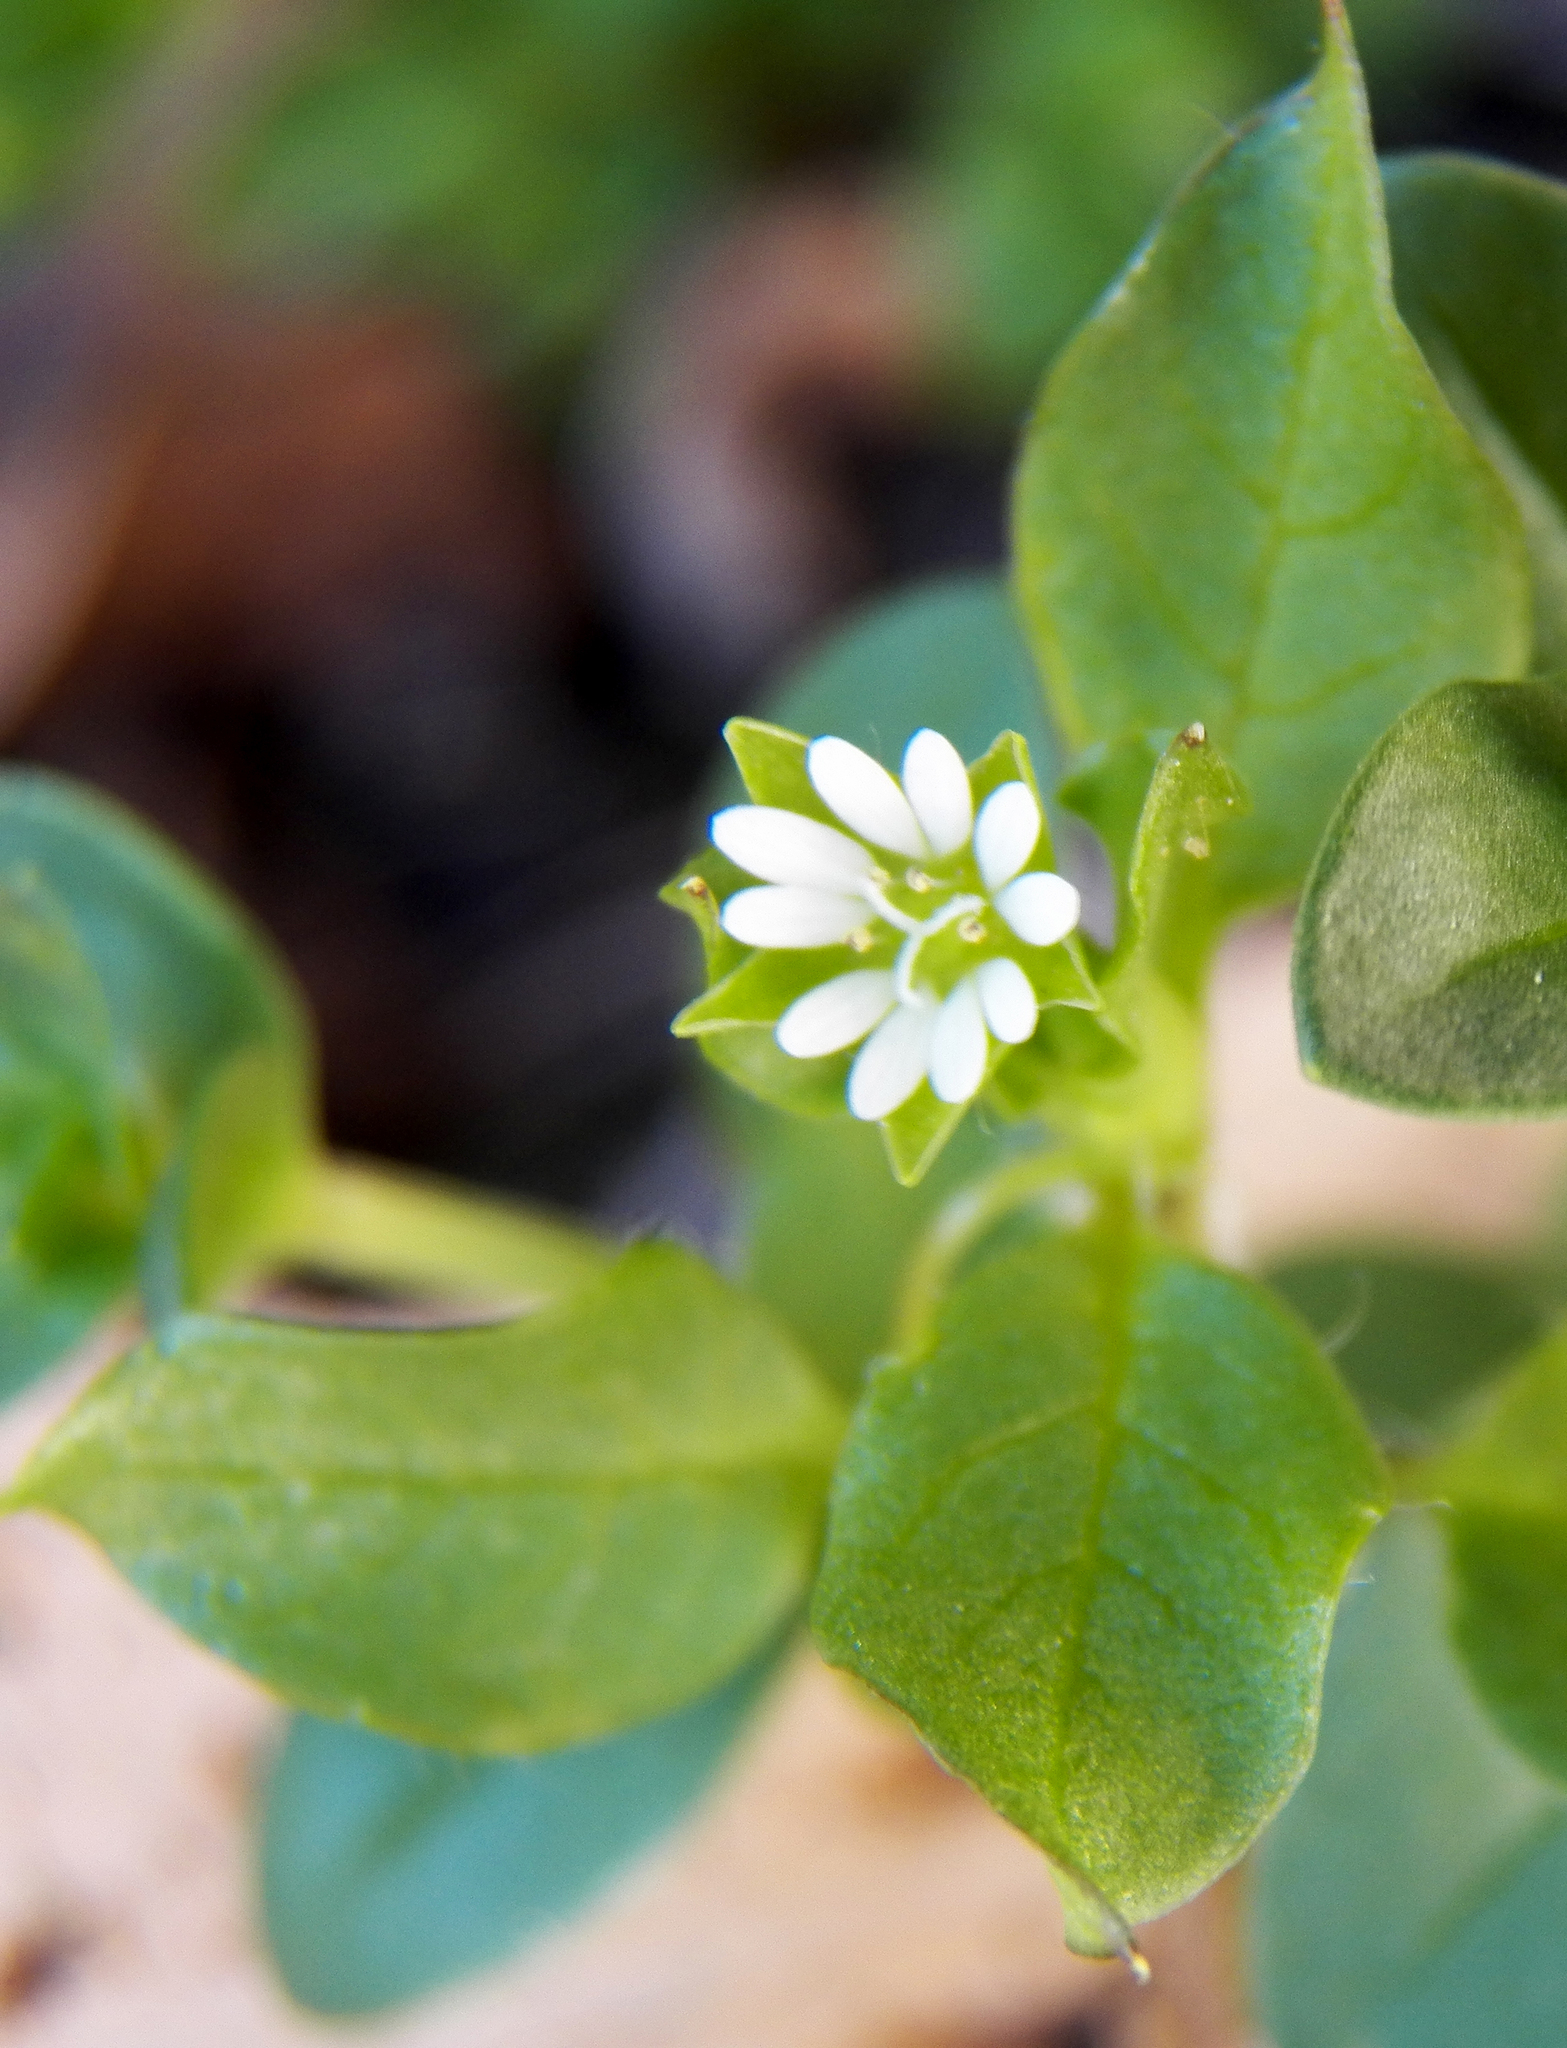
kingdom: Plantae
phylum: Tracheophyta
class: Magnoliopsida
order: Caryophyllales
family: Caryophyllaceae
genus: Stellaria
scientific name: Stellaria media
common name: Common chickweed
